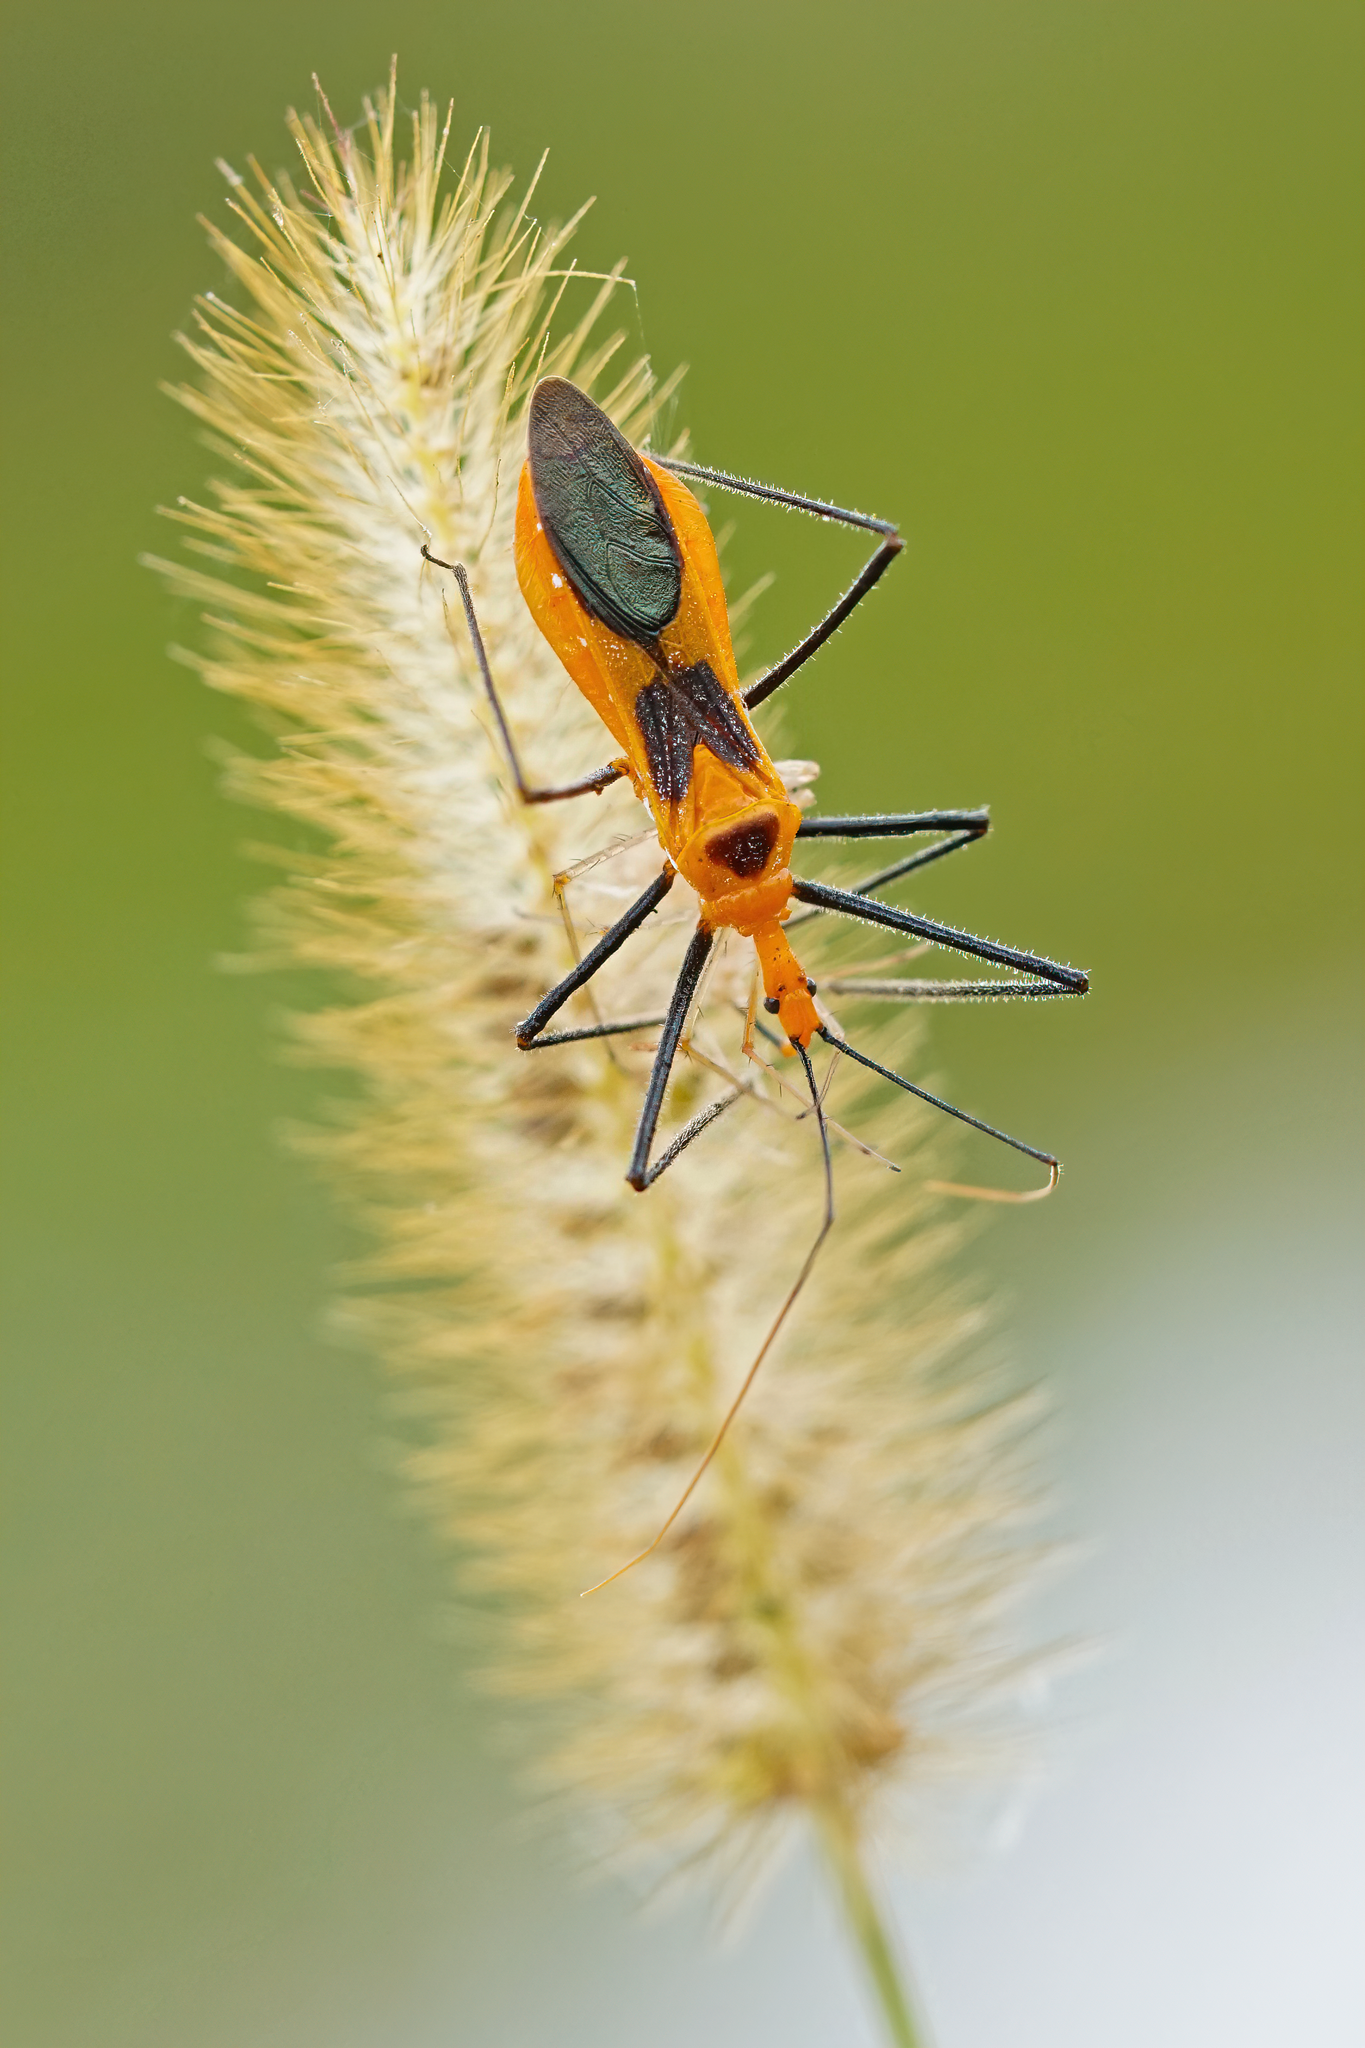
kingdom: Animalia
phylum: Arthropoda
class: Insecta
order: Hemiptera
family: Reduviidae
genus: Zelus
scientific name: Zelus longipes
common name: Milkweed assassin bug
